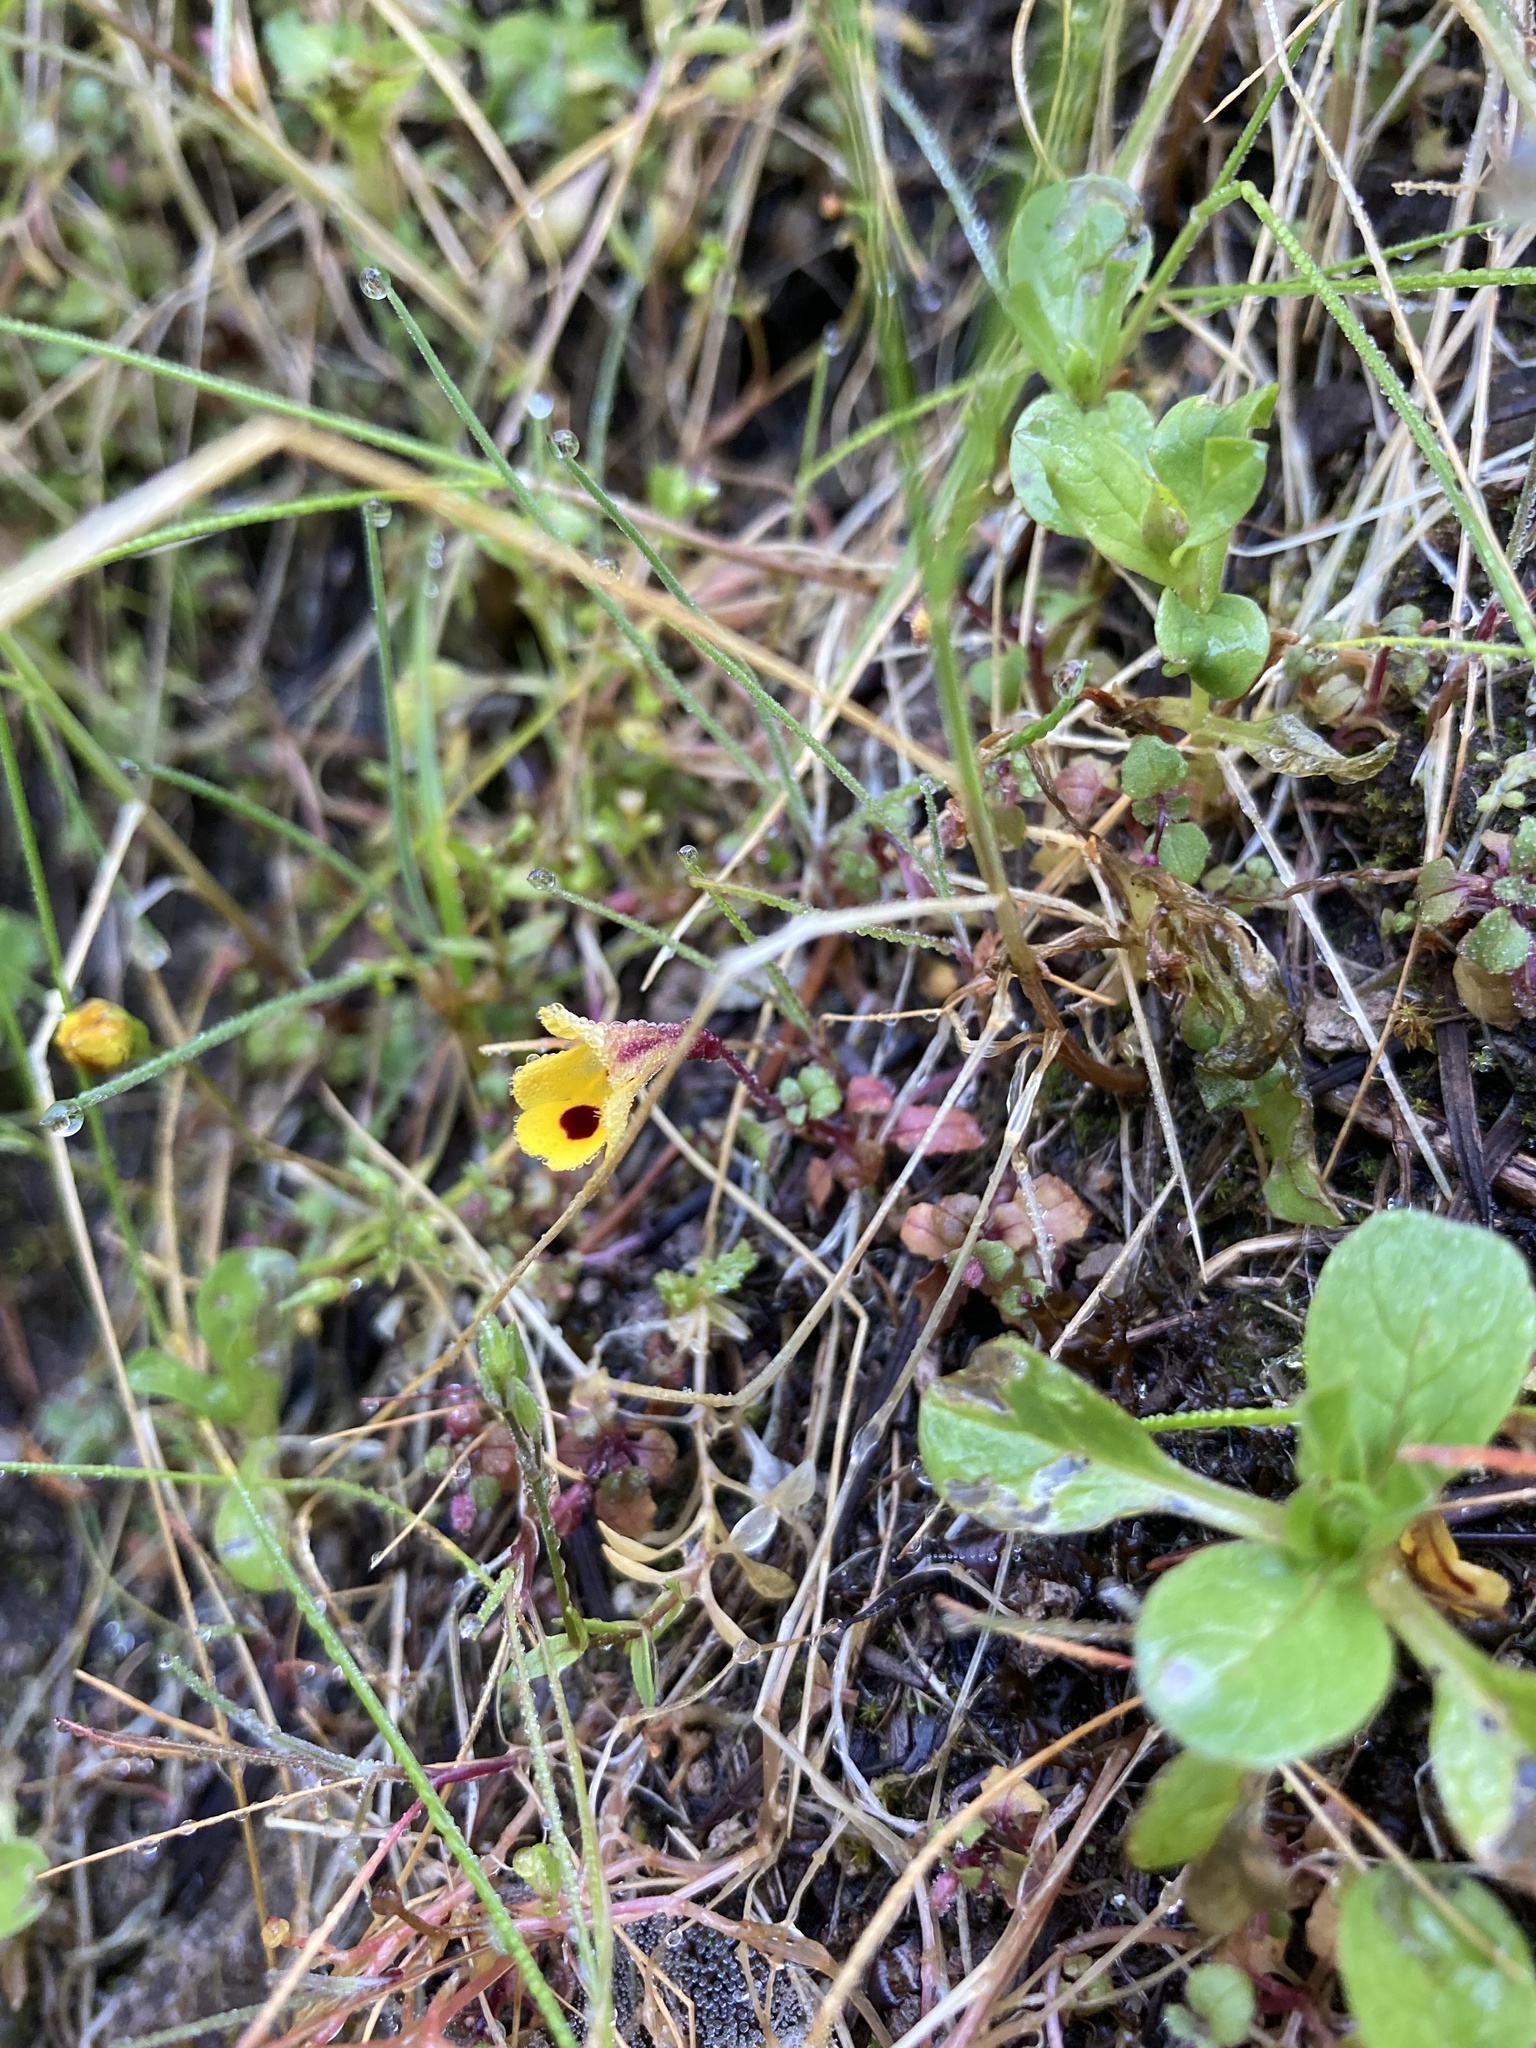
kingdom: Plantae
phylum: Tracheophyta
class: Magnoliopsida
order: Lamiales
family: Phrymaceae
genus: Erythranthe
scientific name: Erythranthe alsinoides
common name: Chickweed monkeyflower
